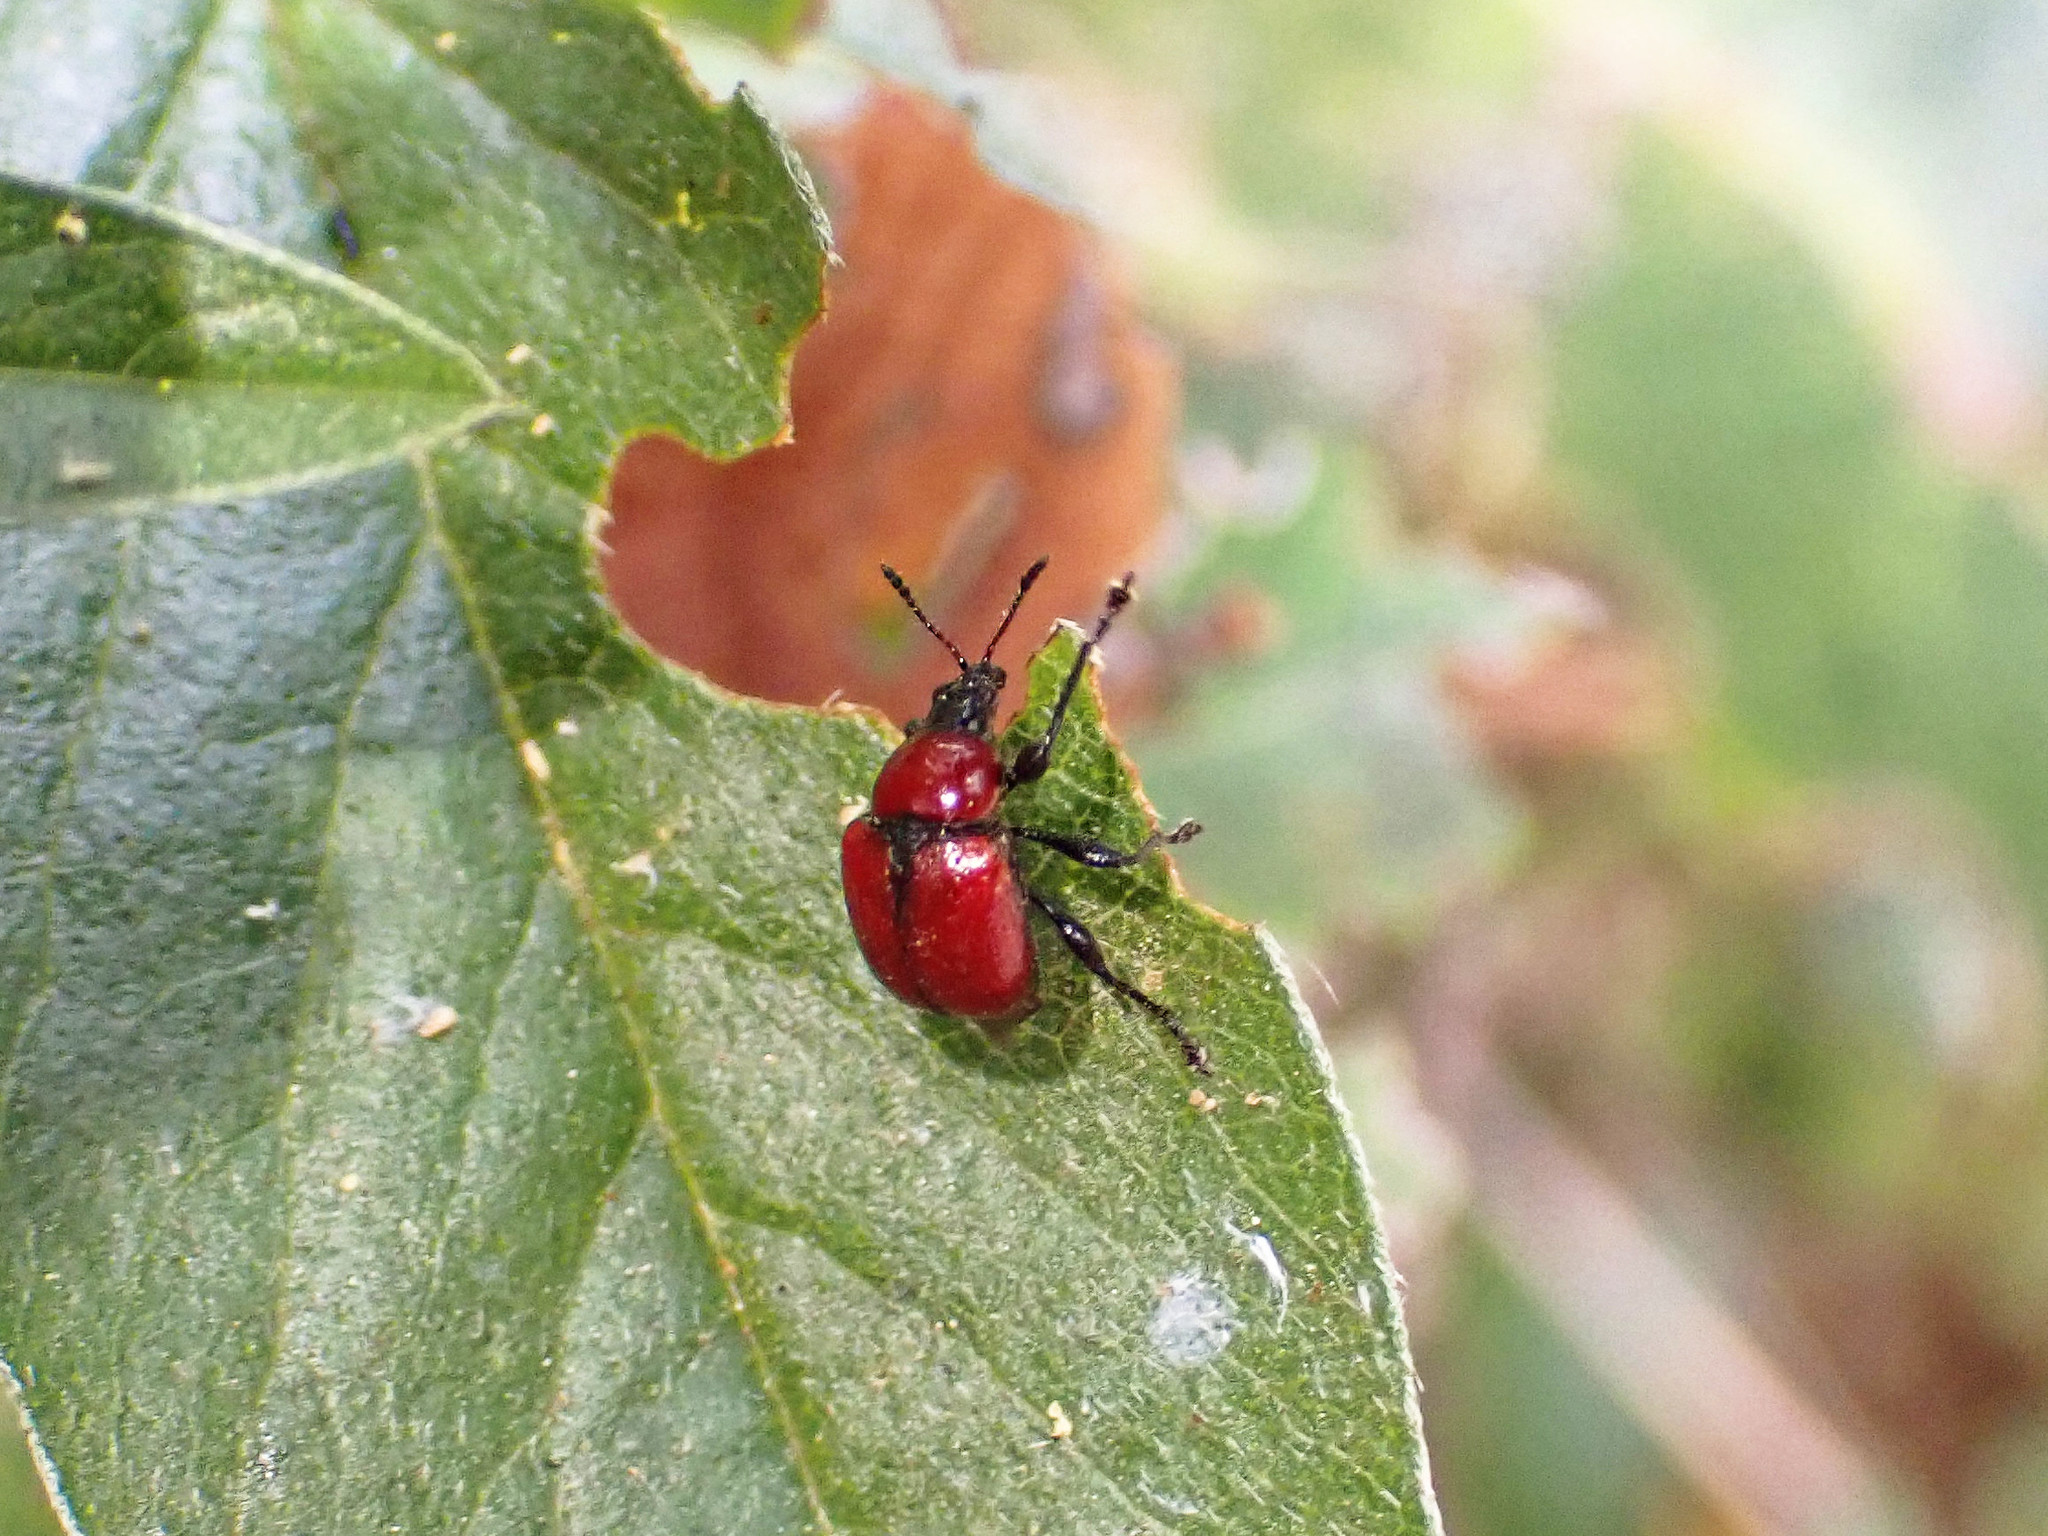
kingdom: Animalia
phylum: Arthropoda
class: Insecta
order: Coleoptera
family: Attelabidae
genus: Attelabus
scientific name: Attelabus nitens
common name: Oak leaf-roller
